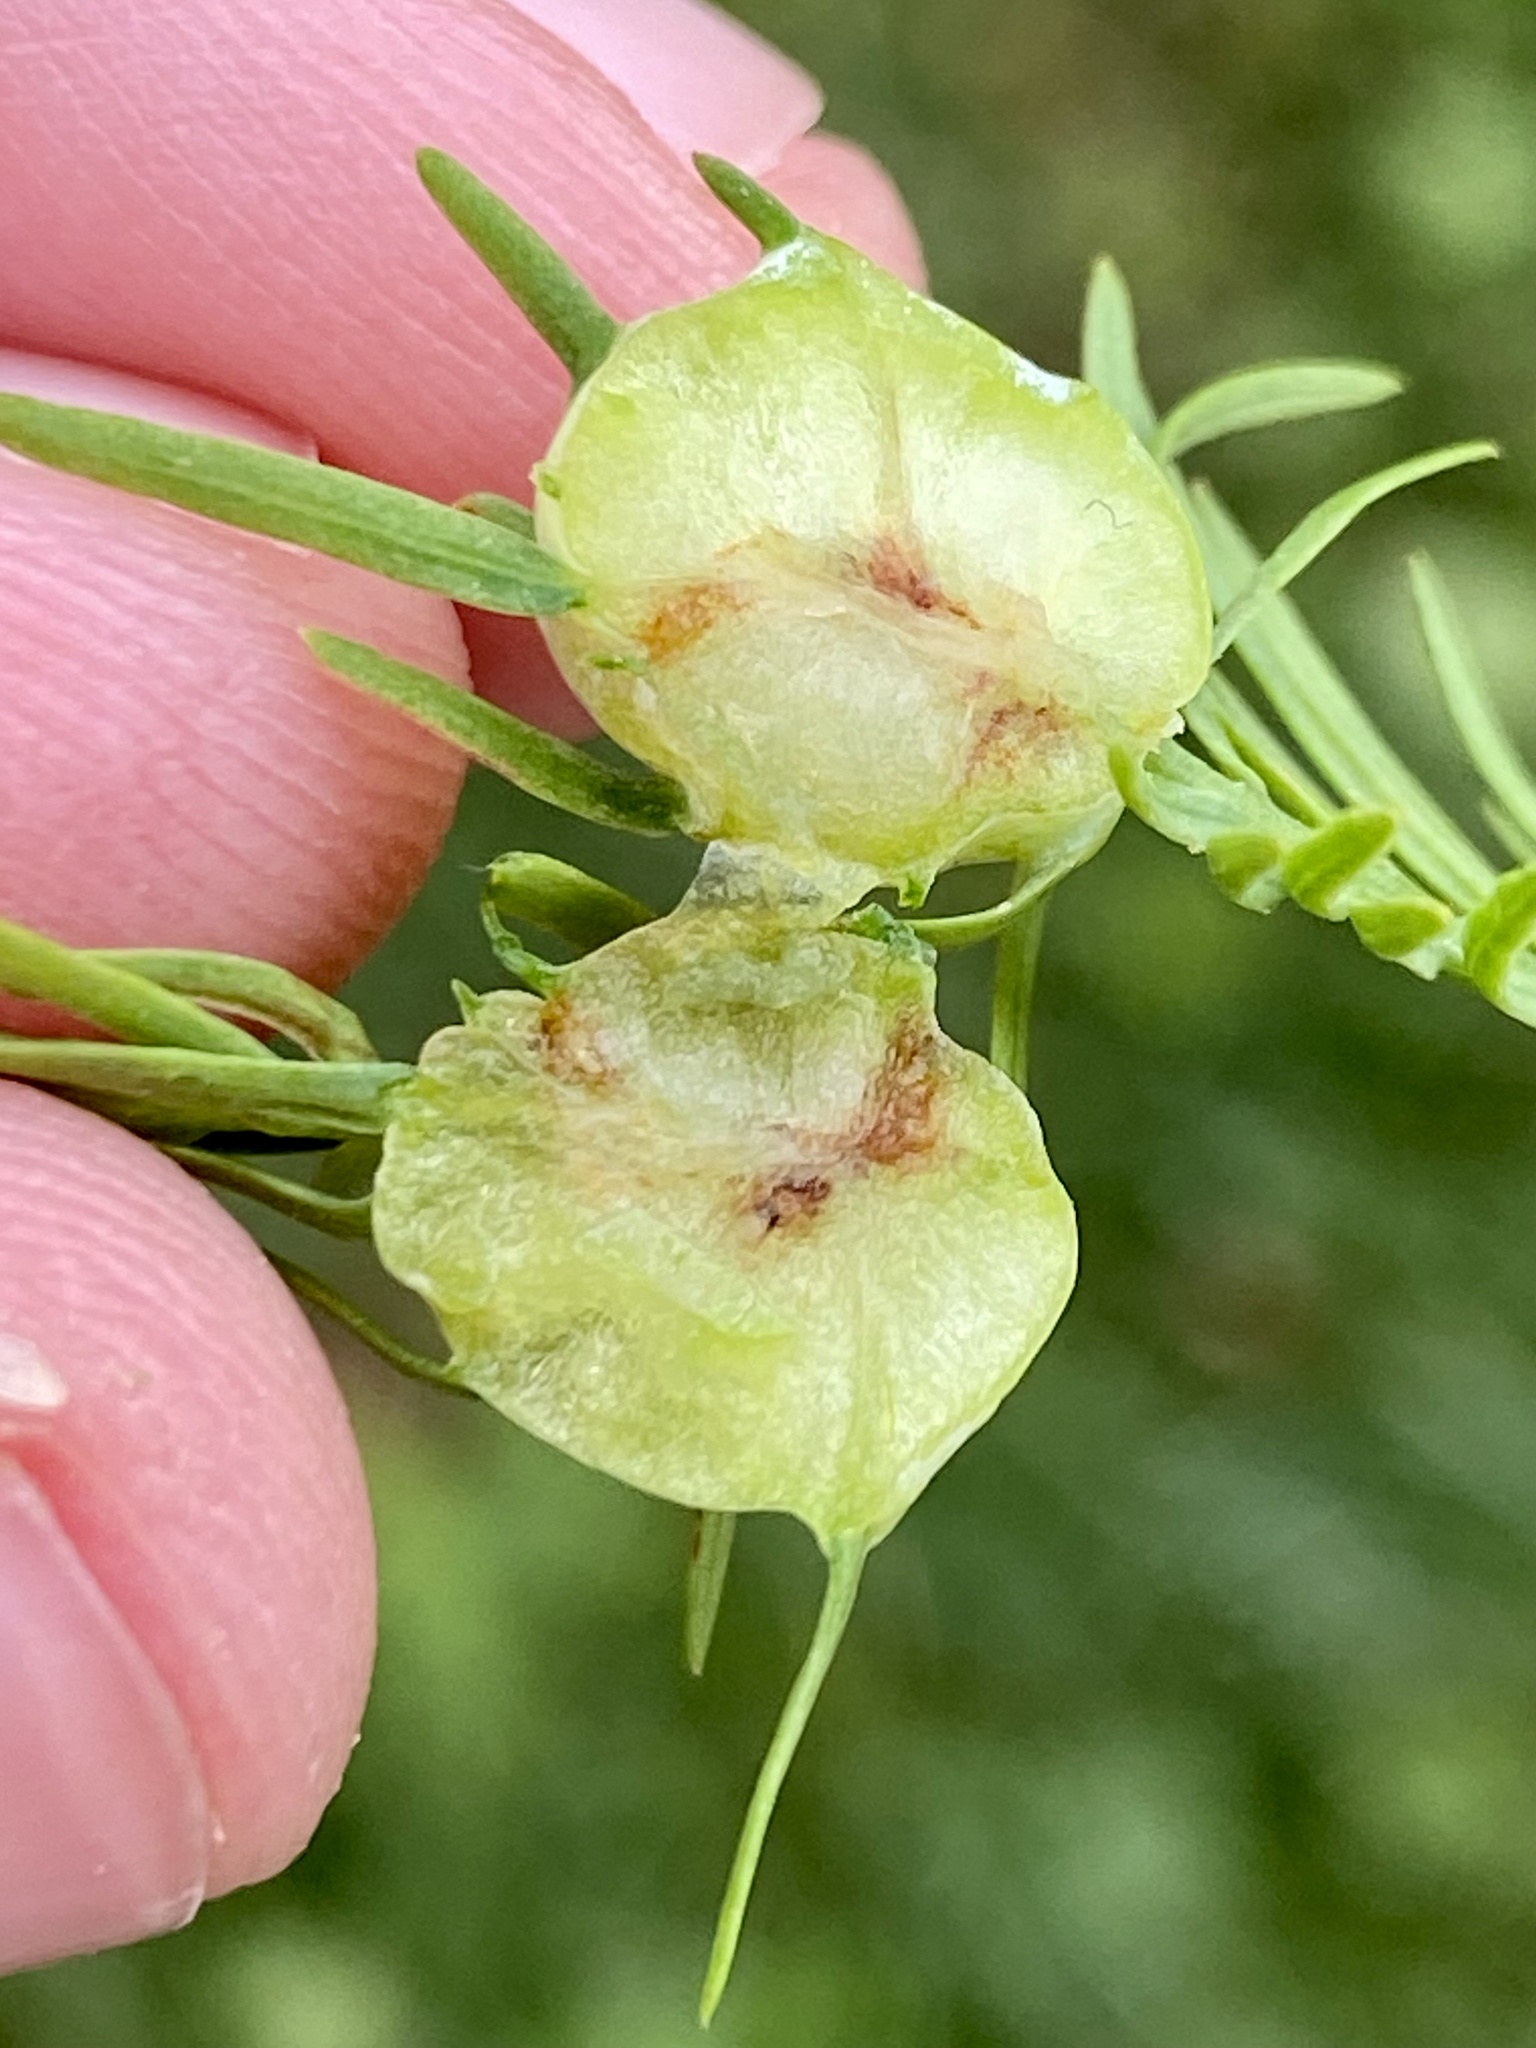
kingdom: Animalia
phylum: Arthropoda
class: Insecta
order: Diptera
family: Cecidomyiidae
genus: Taxodiomyia
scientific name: Taxodiomyia cupressiananassa
